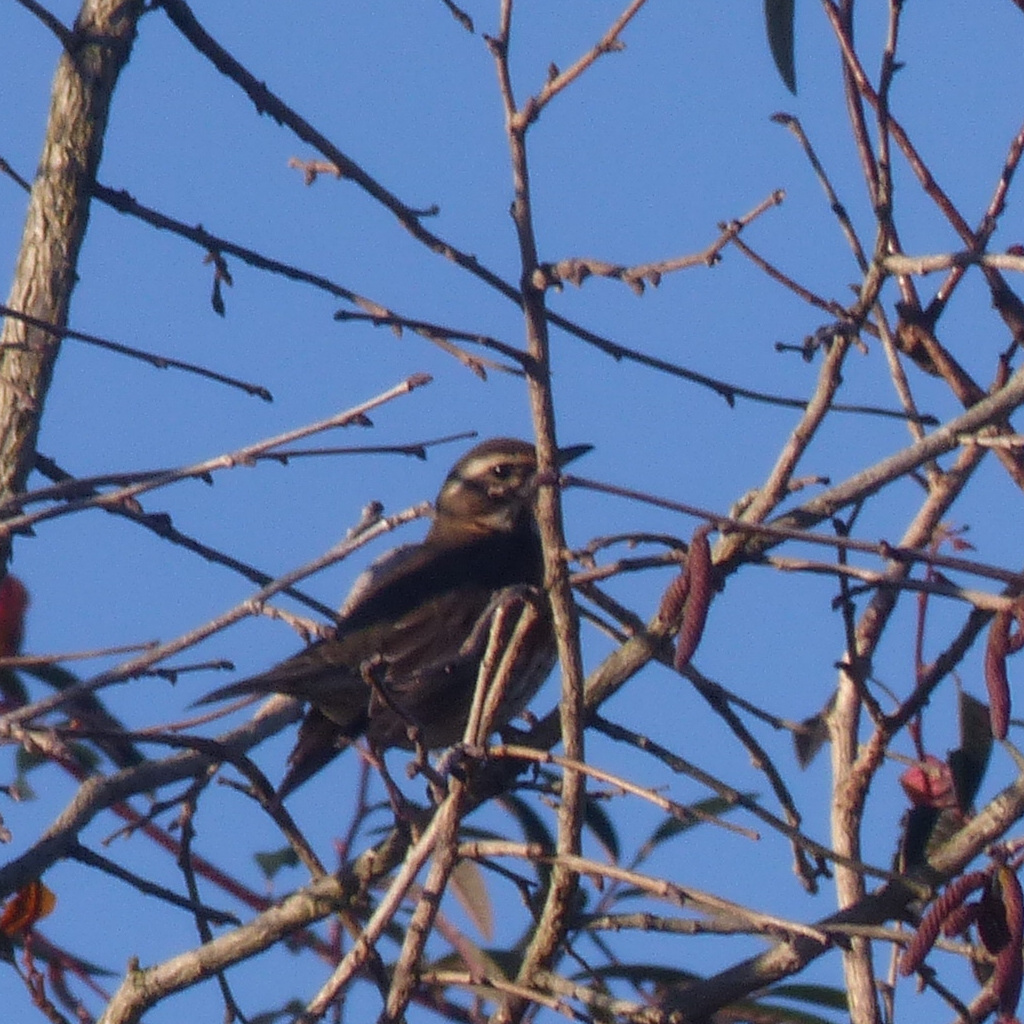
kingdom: Animalia
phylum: Chordata
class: Aves
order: Passeriformes
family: Turdidae
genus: Turdus
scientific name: Turdus iliacus
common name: Redwing
